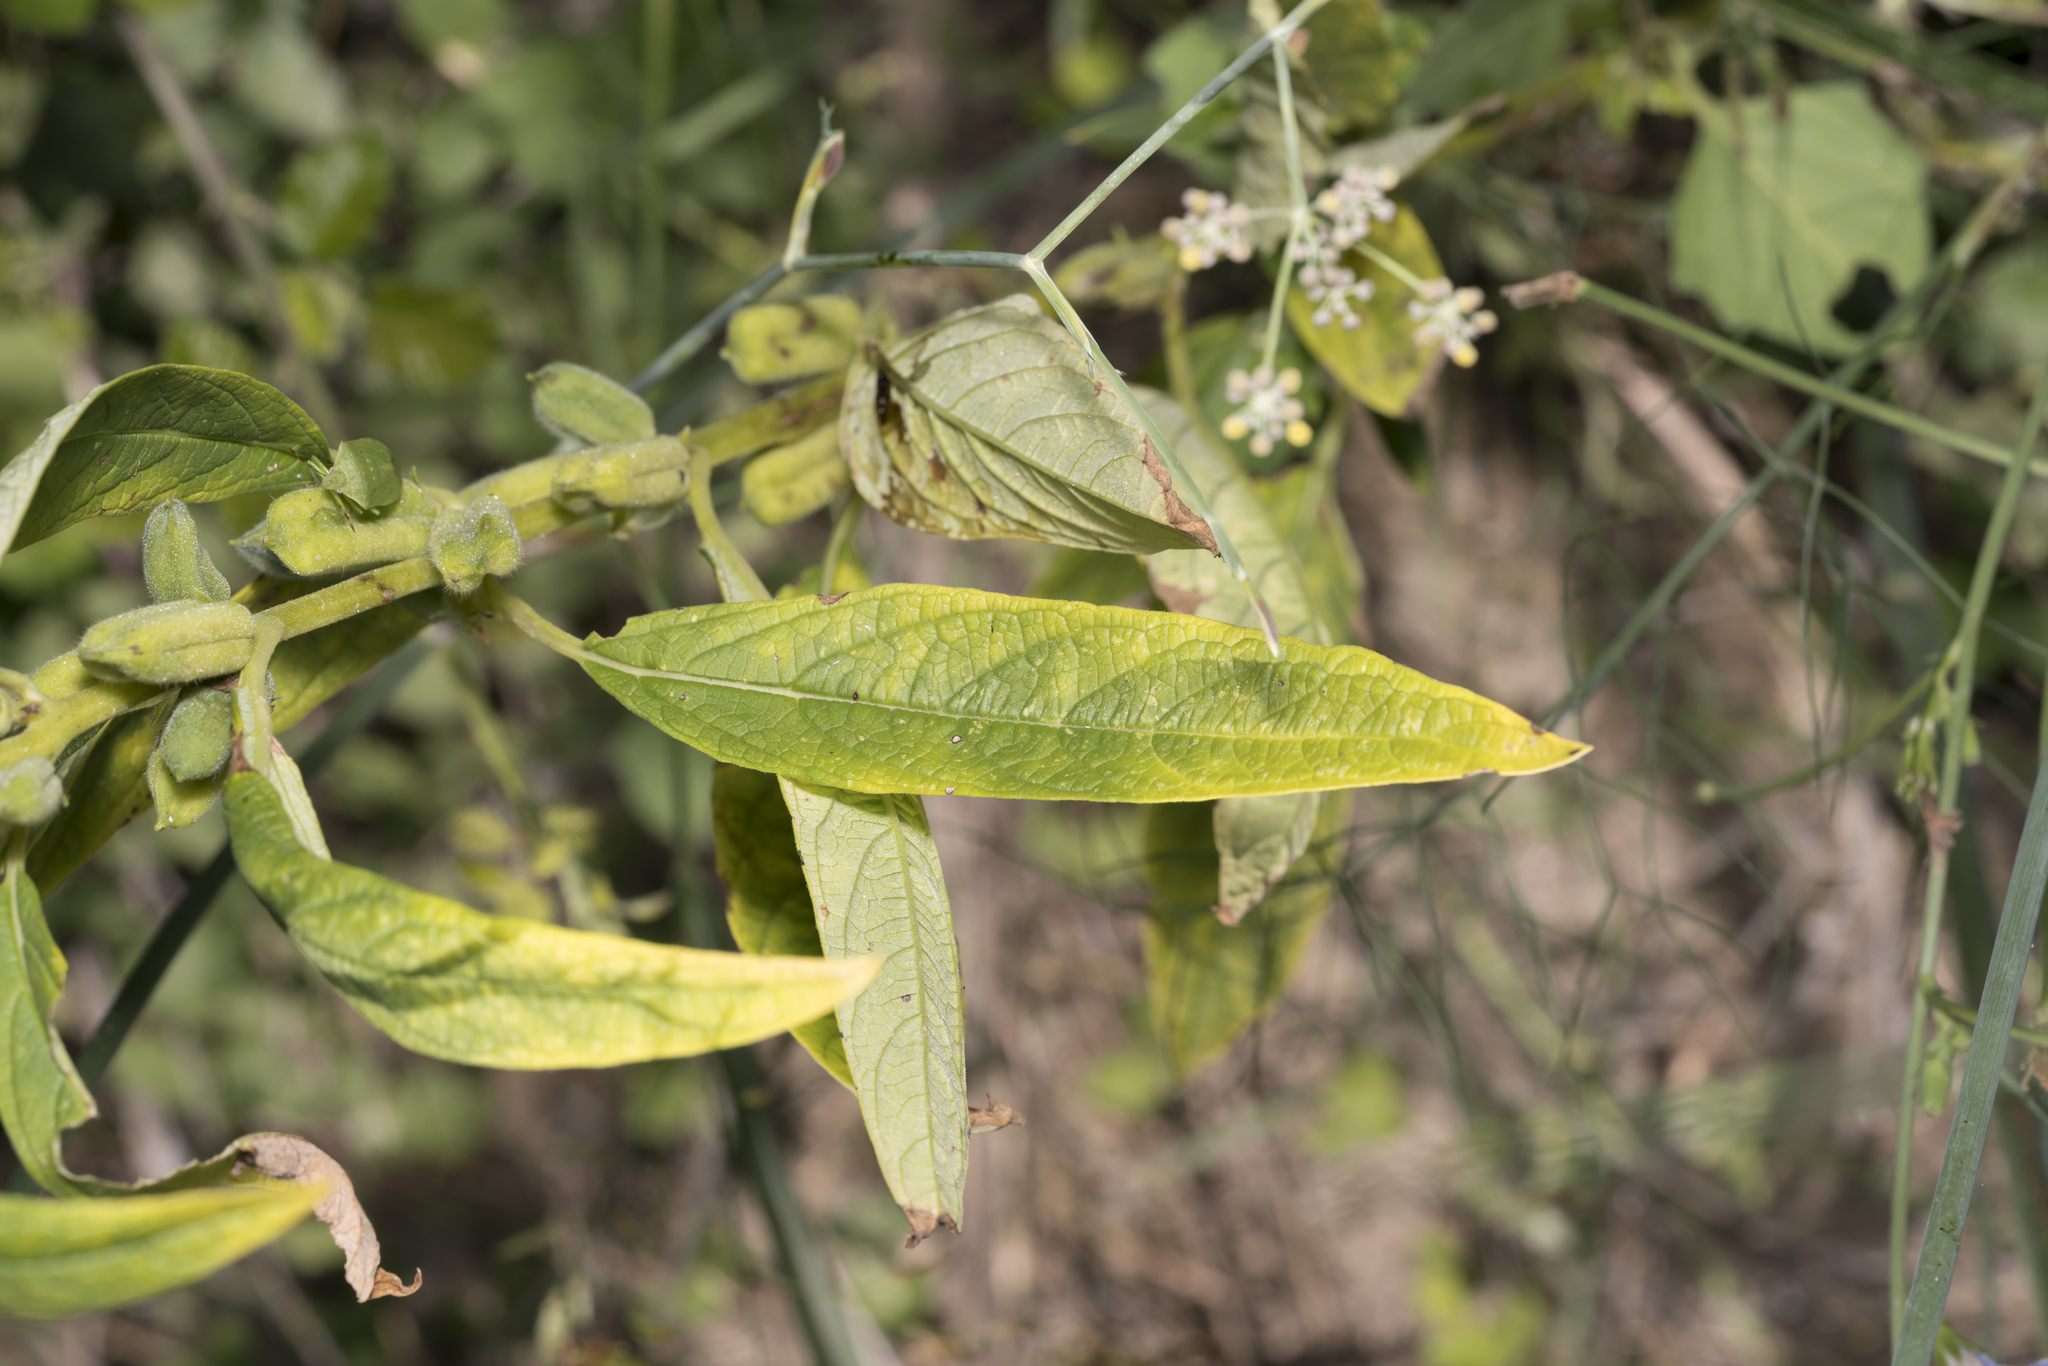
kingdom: Plantae
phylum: Tracheophyta
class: Magnoliopsida
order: Lamiales
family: Pedaliaceae
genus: Sesamum
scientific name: Sesamum indicum
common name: Sesame
